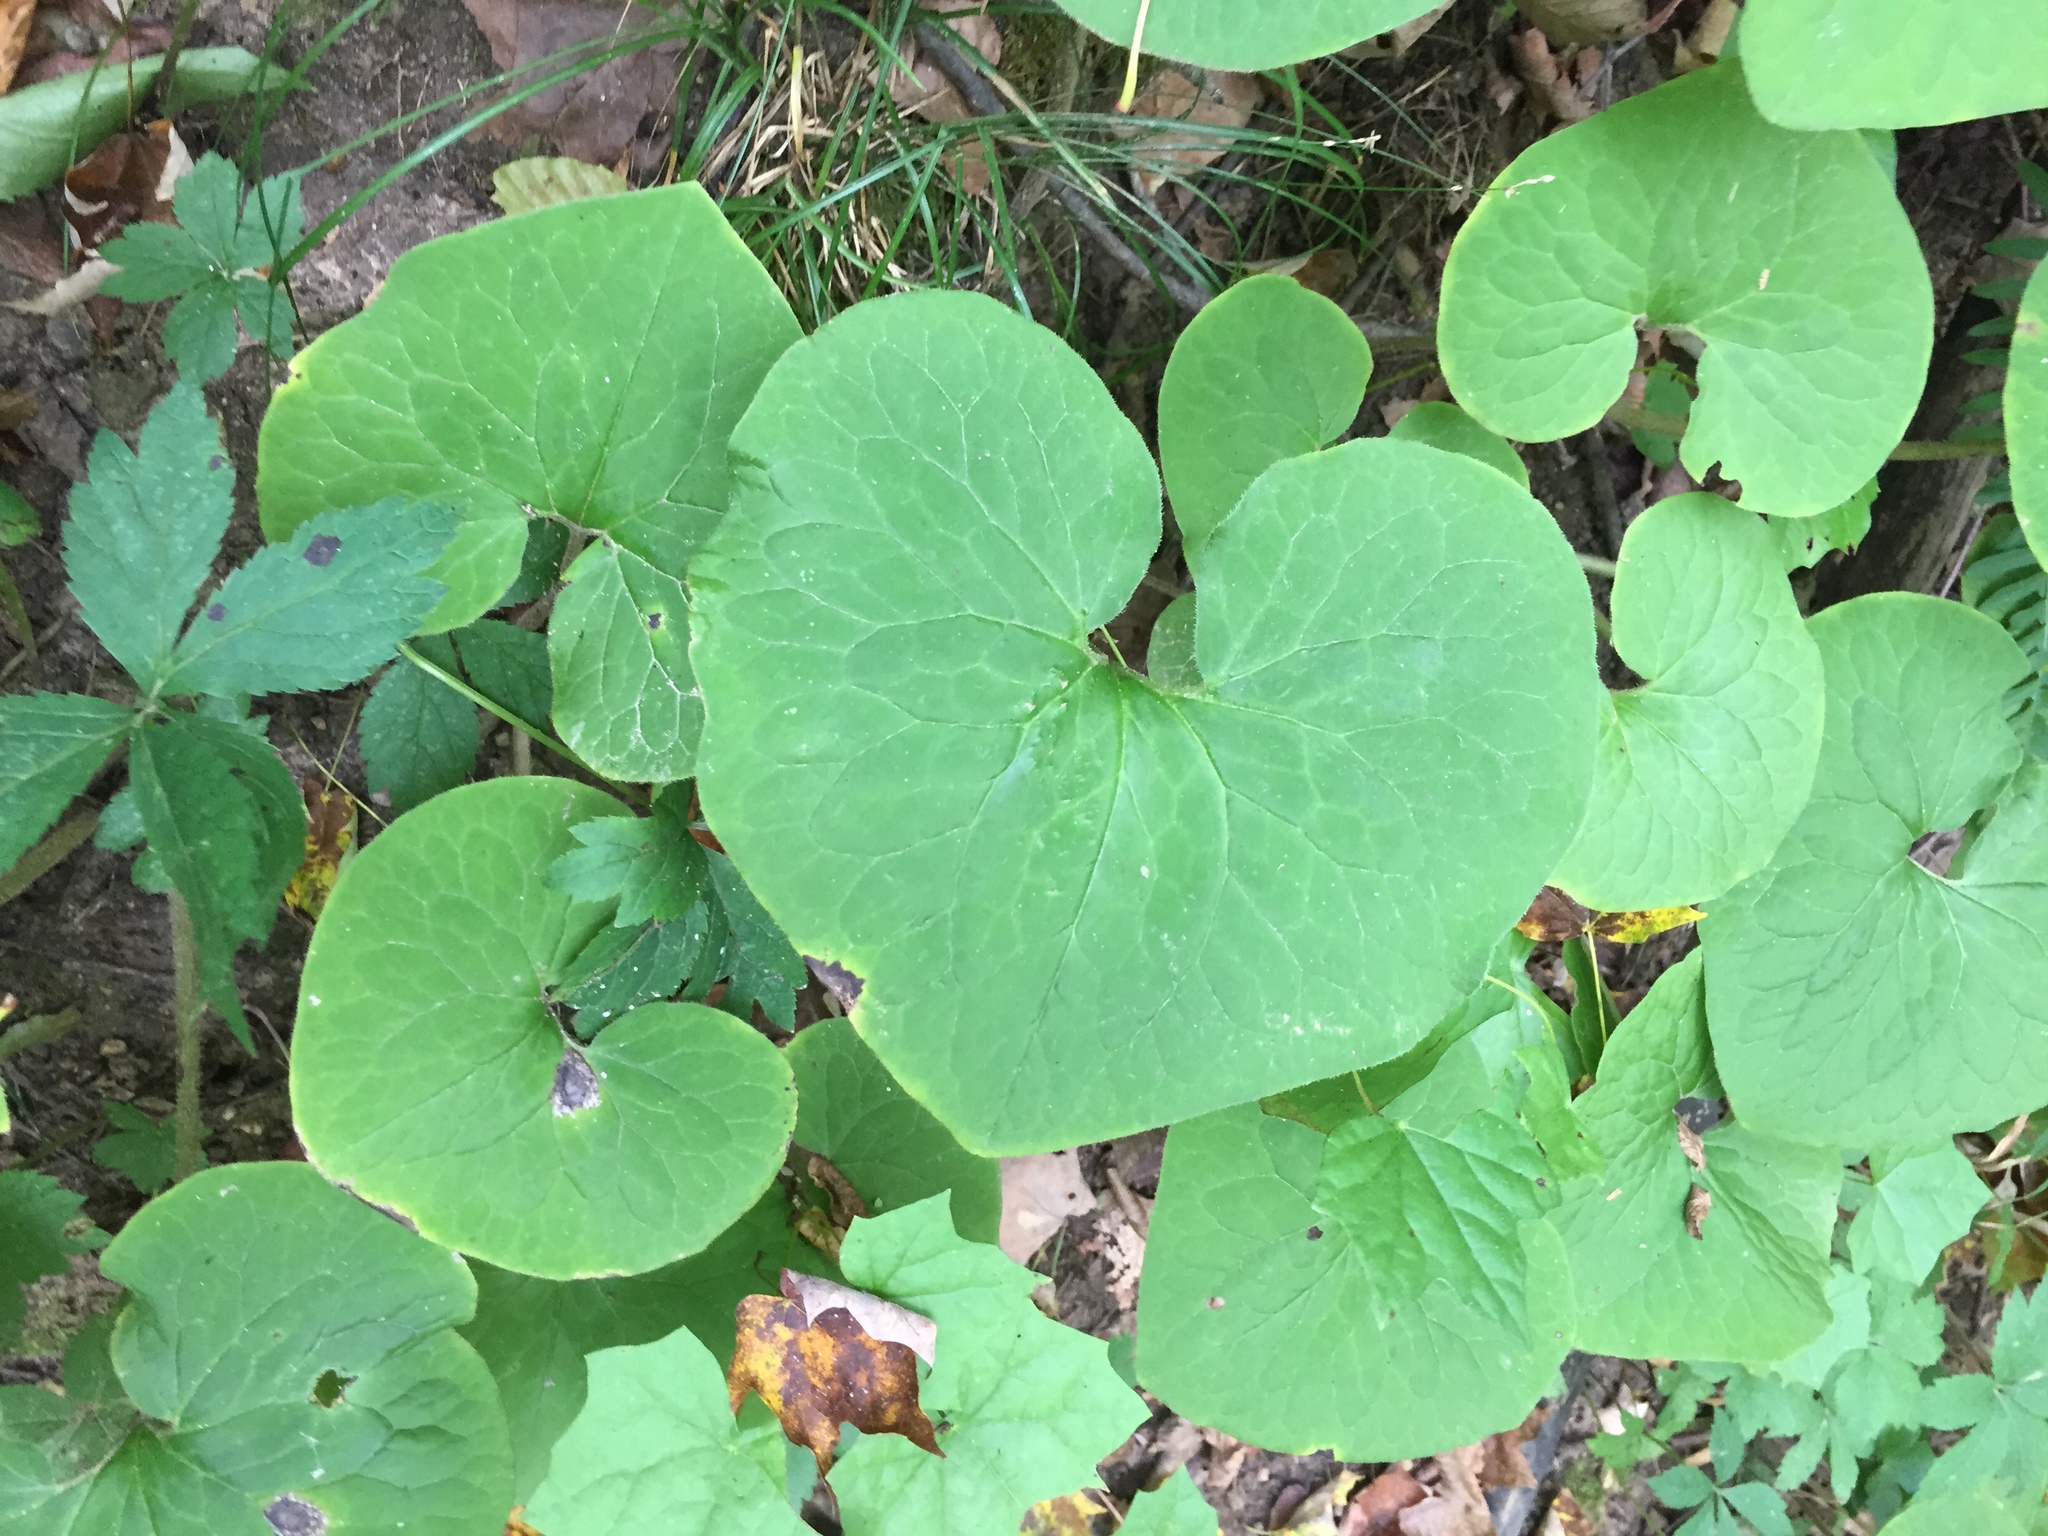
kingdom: Plantae
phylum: Tracheophyta
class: Magnoliopsida
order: Piperales
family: Aristolochiaceae
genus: Asarum
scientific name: Asarum canadense
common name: Wild ginger
